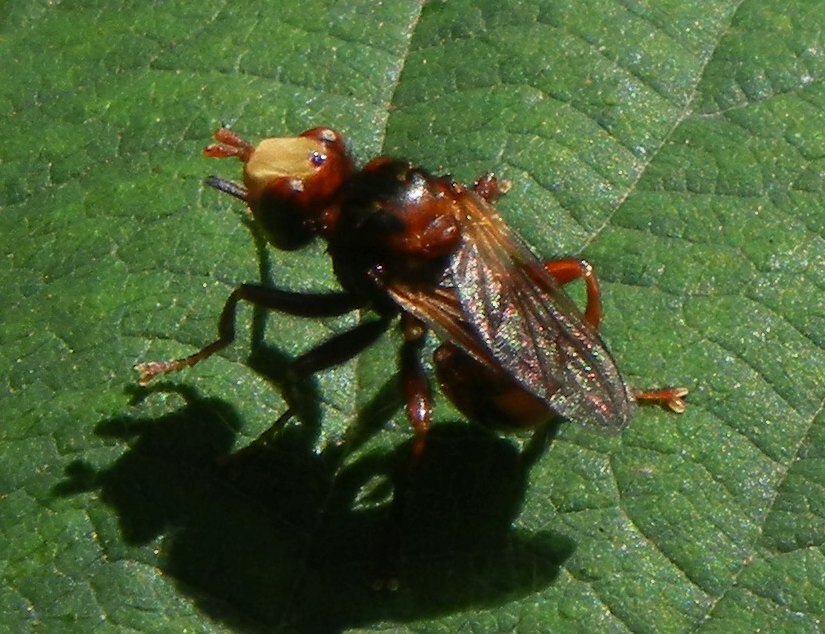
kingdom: Animalia
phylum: Arthropoda
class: Insecta
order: Diptera
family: Conopidae
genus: Sicus
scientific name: Sicus ferrugineus
